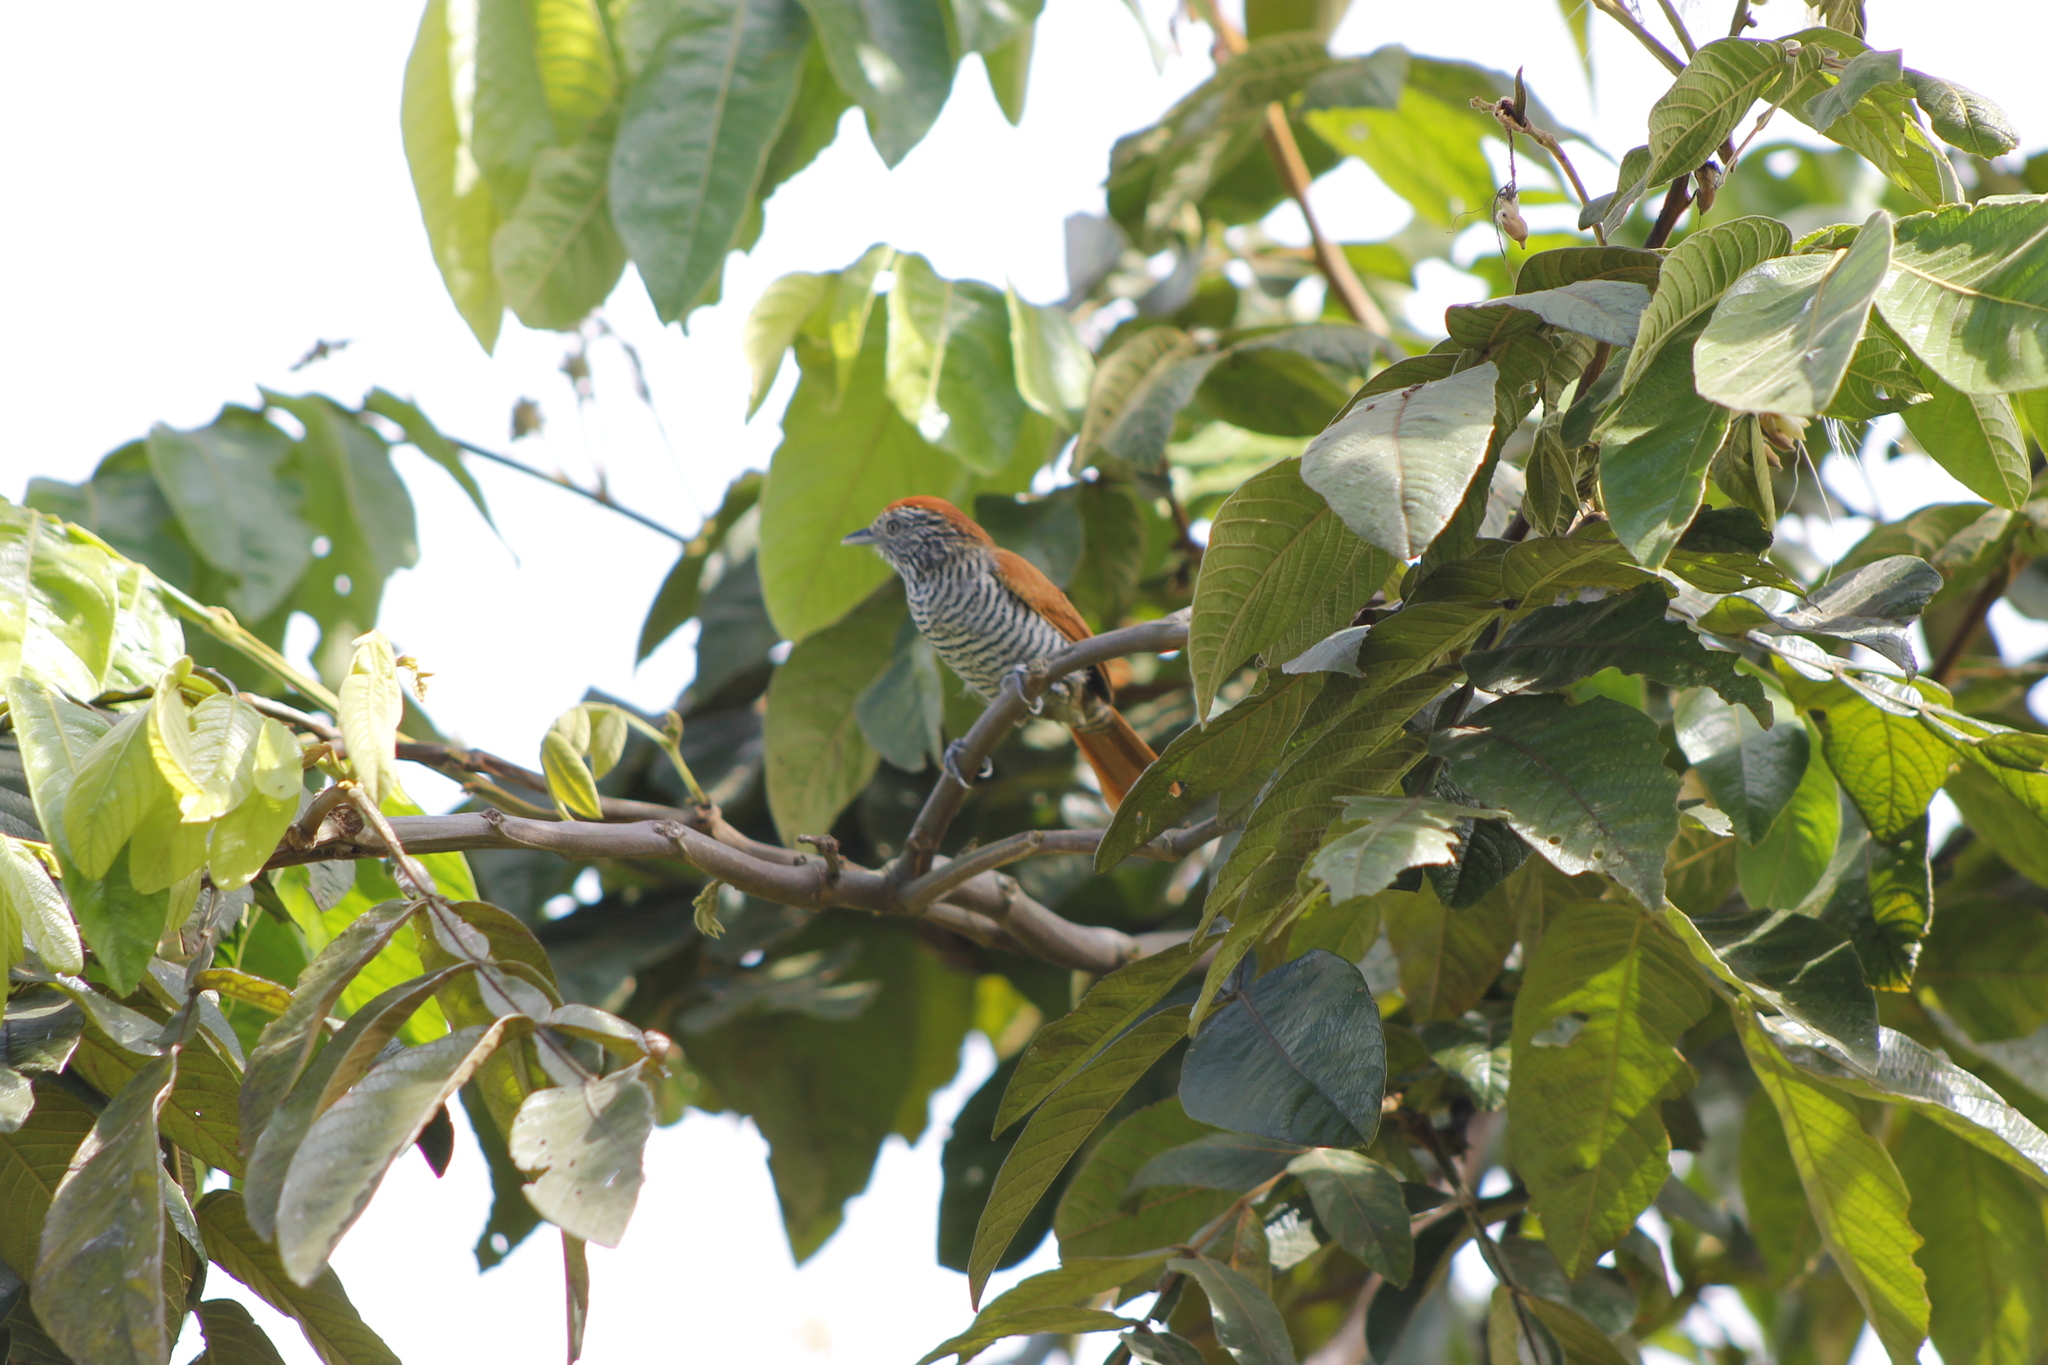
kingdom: Animalia
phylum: Chordata
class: Aves
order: Passeriformes
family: Thamnophilidae
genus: Thamnophilus
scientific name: Thamnophilus multistriatus
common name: Bar-crested antshrike
